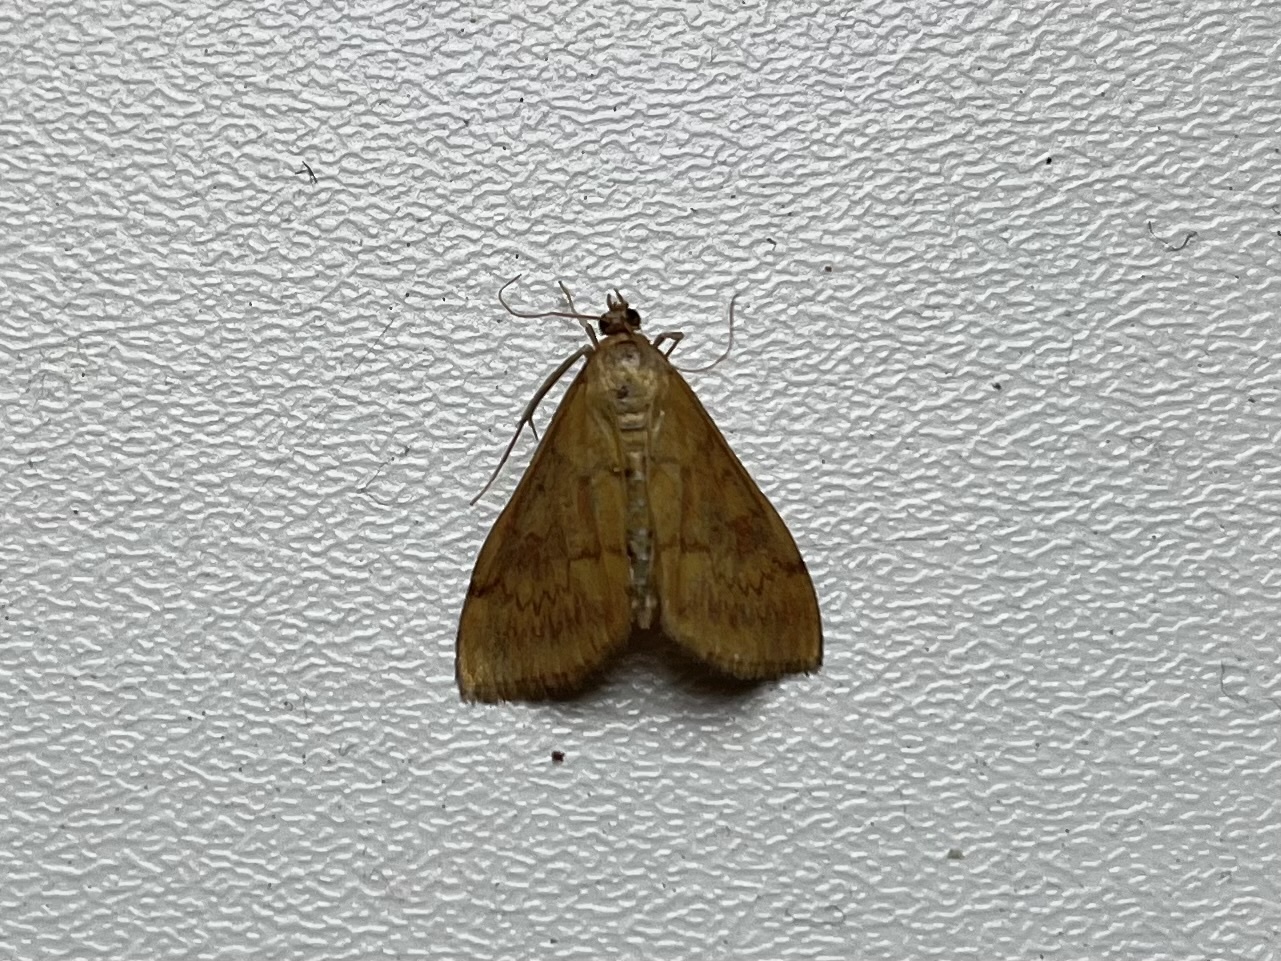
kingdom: Animalia
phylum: Arthropoda
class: Insecta
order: Lepidoptera
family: Crambidae
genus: Ostrinia
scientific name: Ostrinia nubilalis
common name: European corn borer
